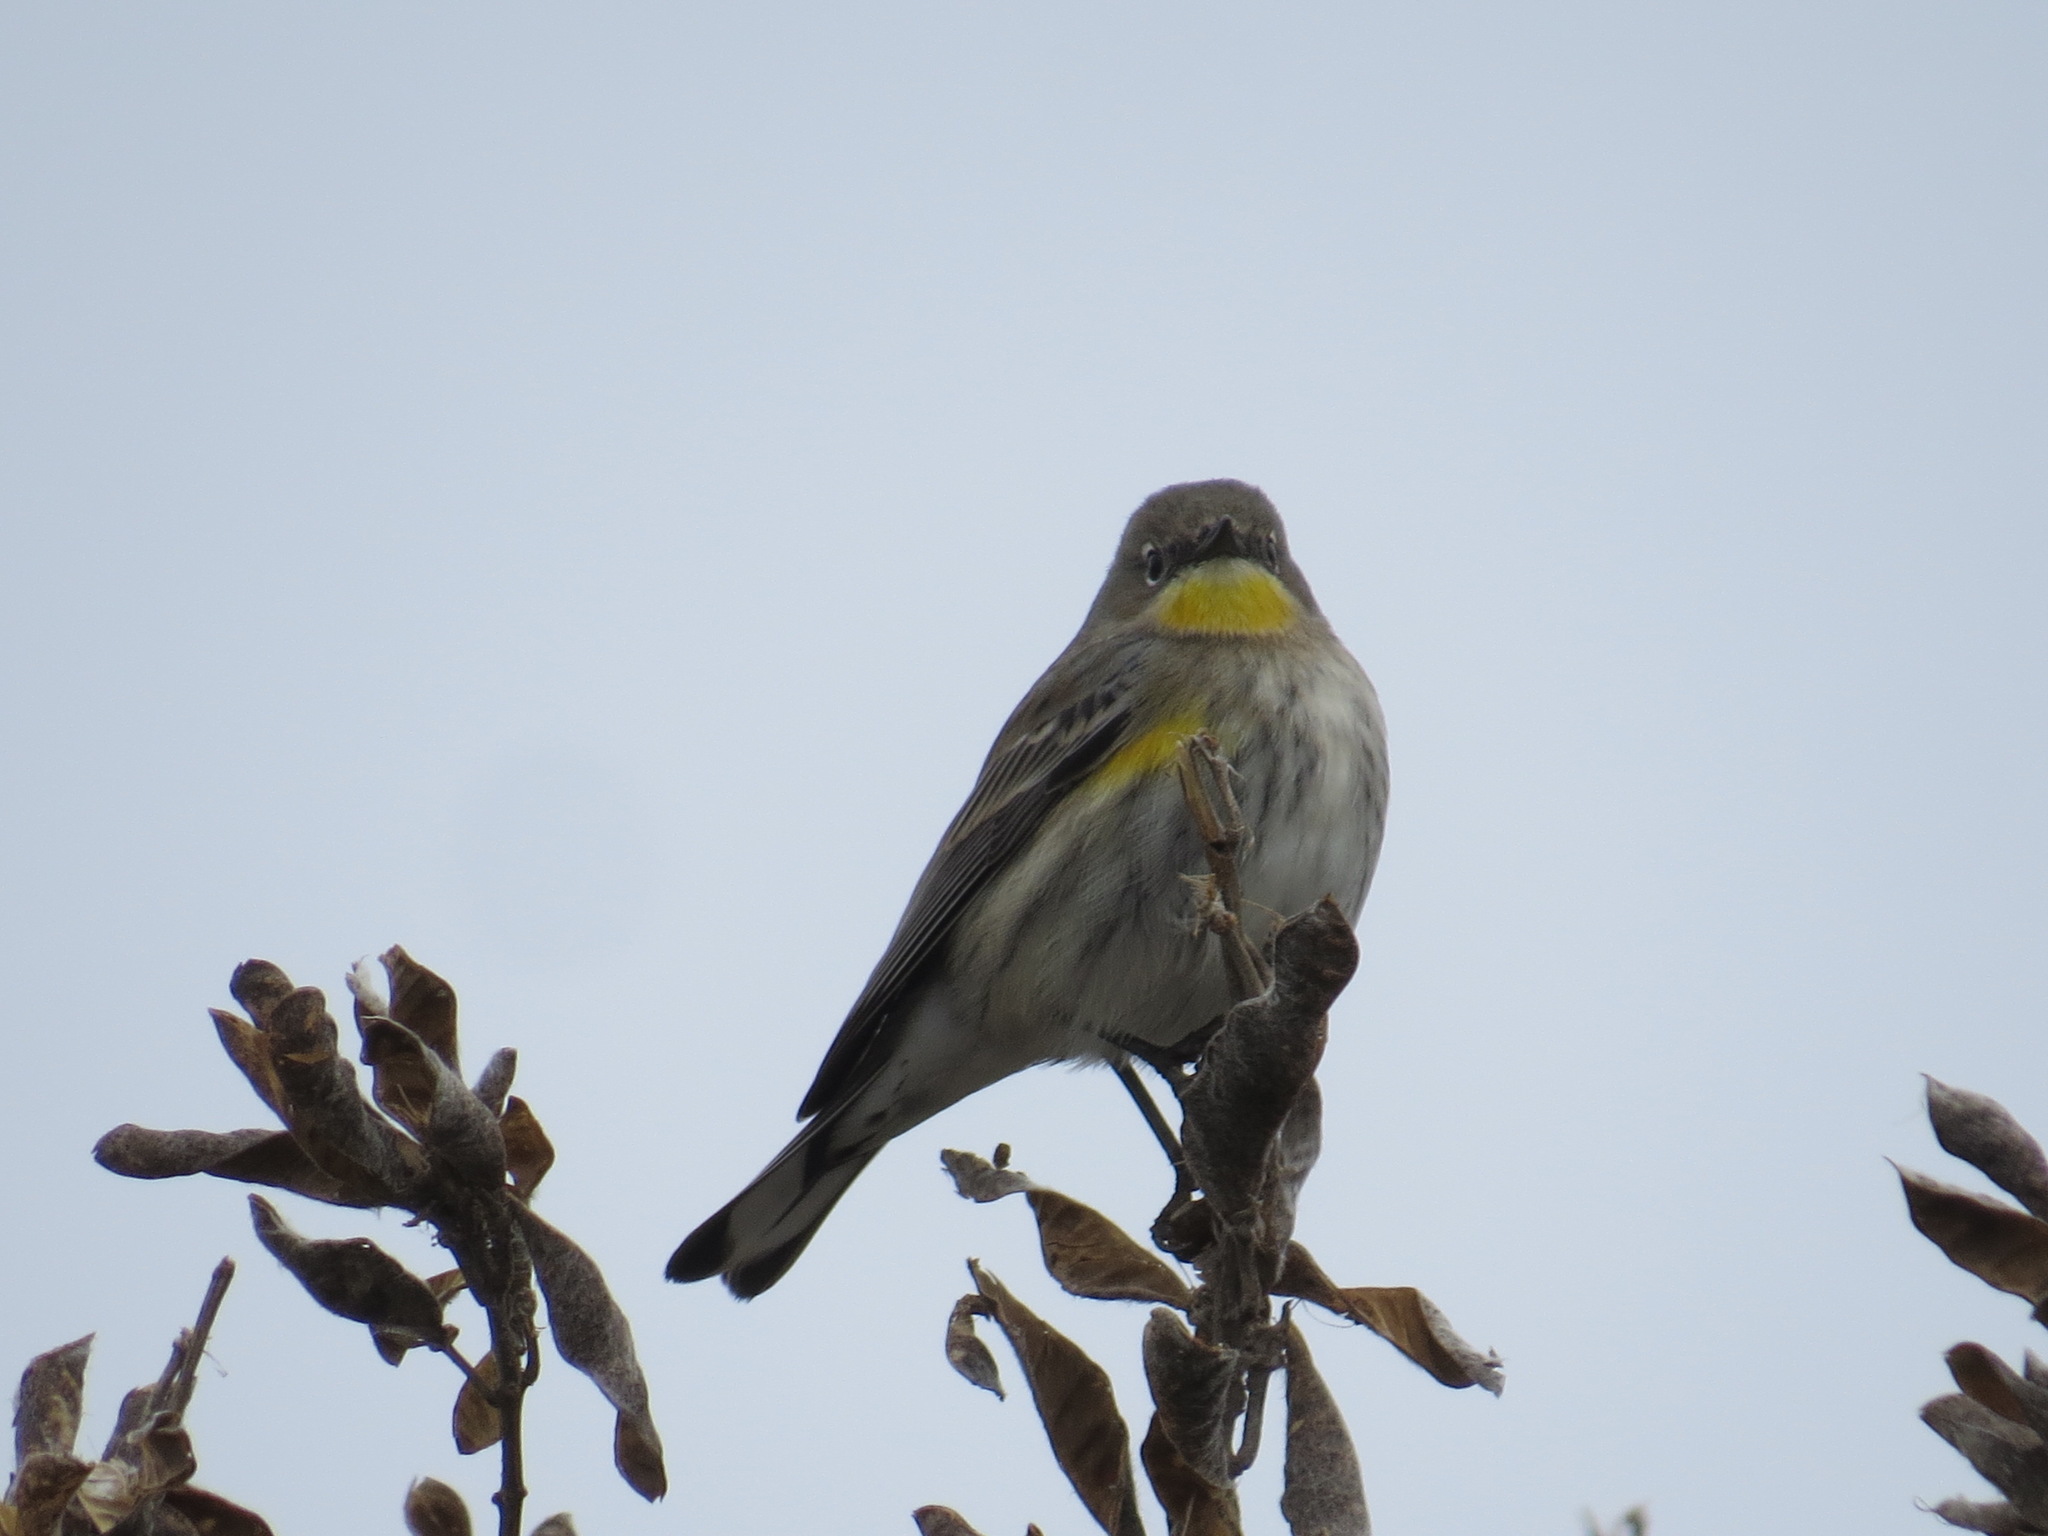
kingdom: Animalia
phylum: Chordata
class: Aves
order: Passeriformes
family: Parulidae
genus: Setophaga
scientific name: Setophaga auduboni
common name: Audubon's warbler
